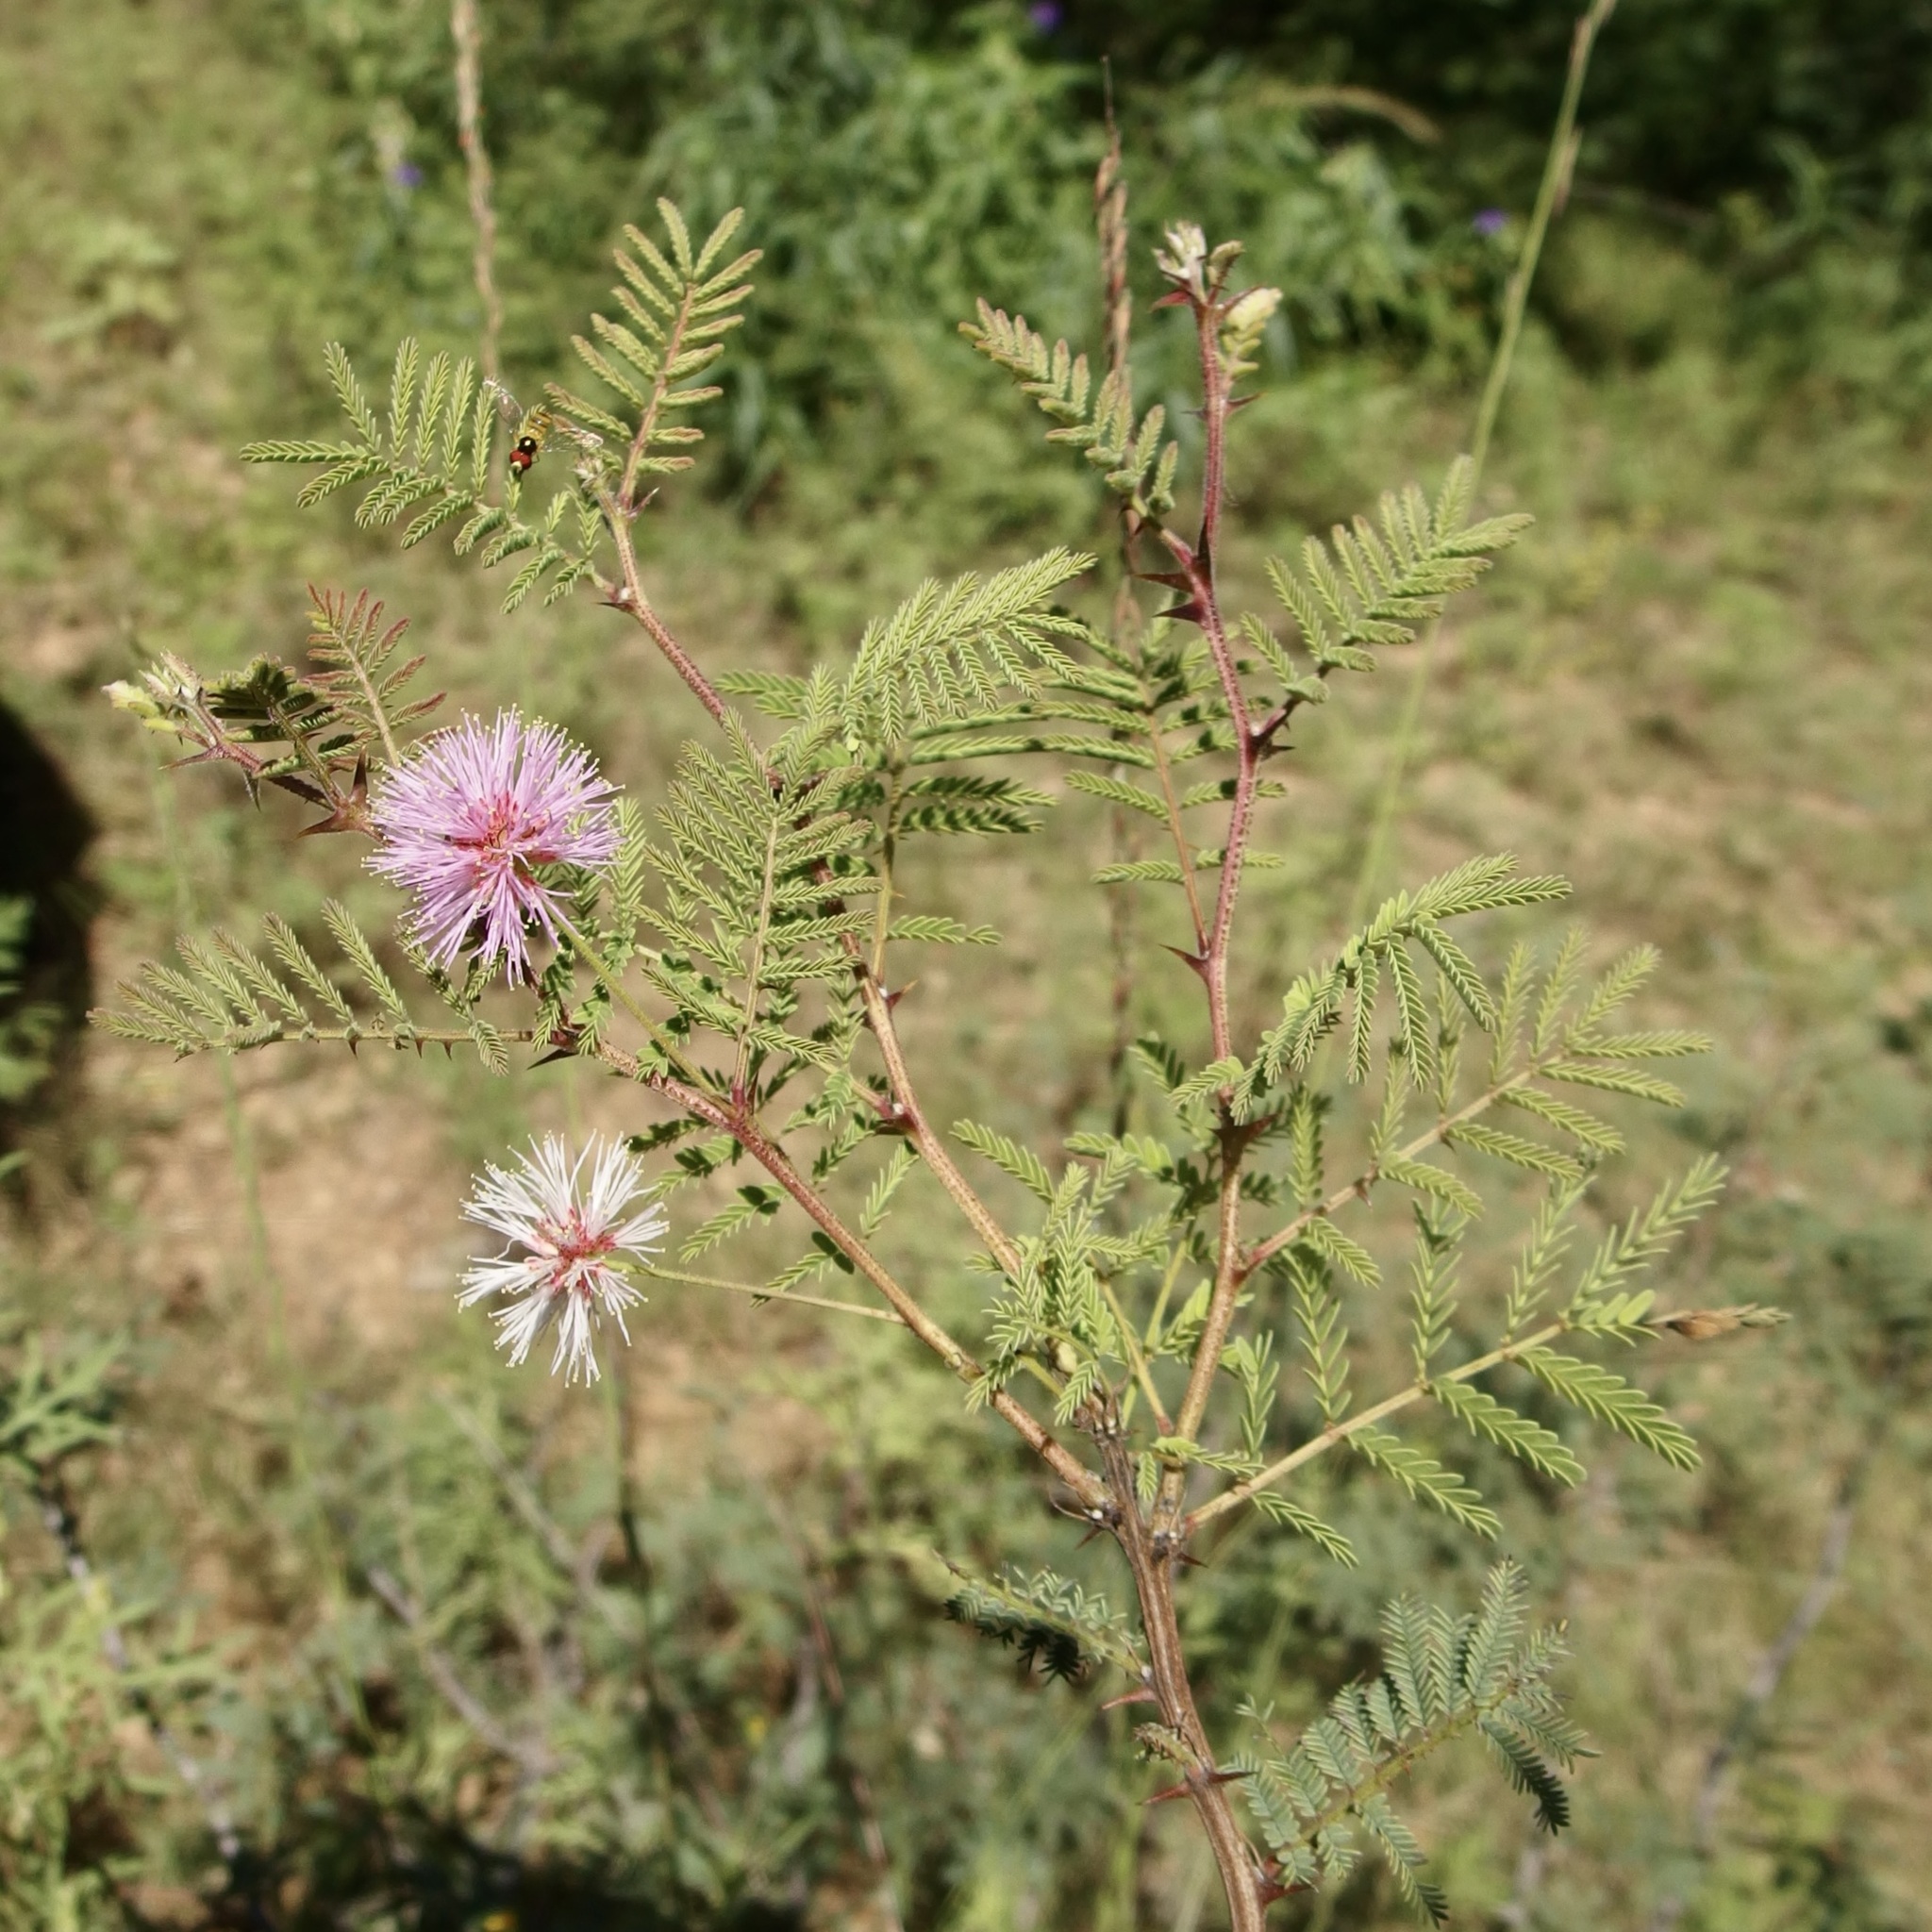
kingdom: Plantae
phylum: Tracheophyta
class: Magnoliopsida
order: Fabales
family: Fabaceae
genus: Mimosa
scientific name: Mimosa moniliformis
